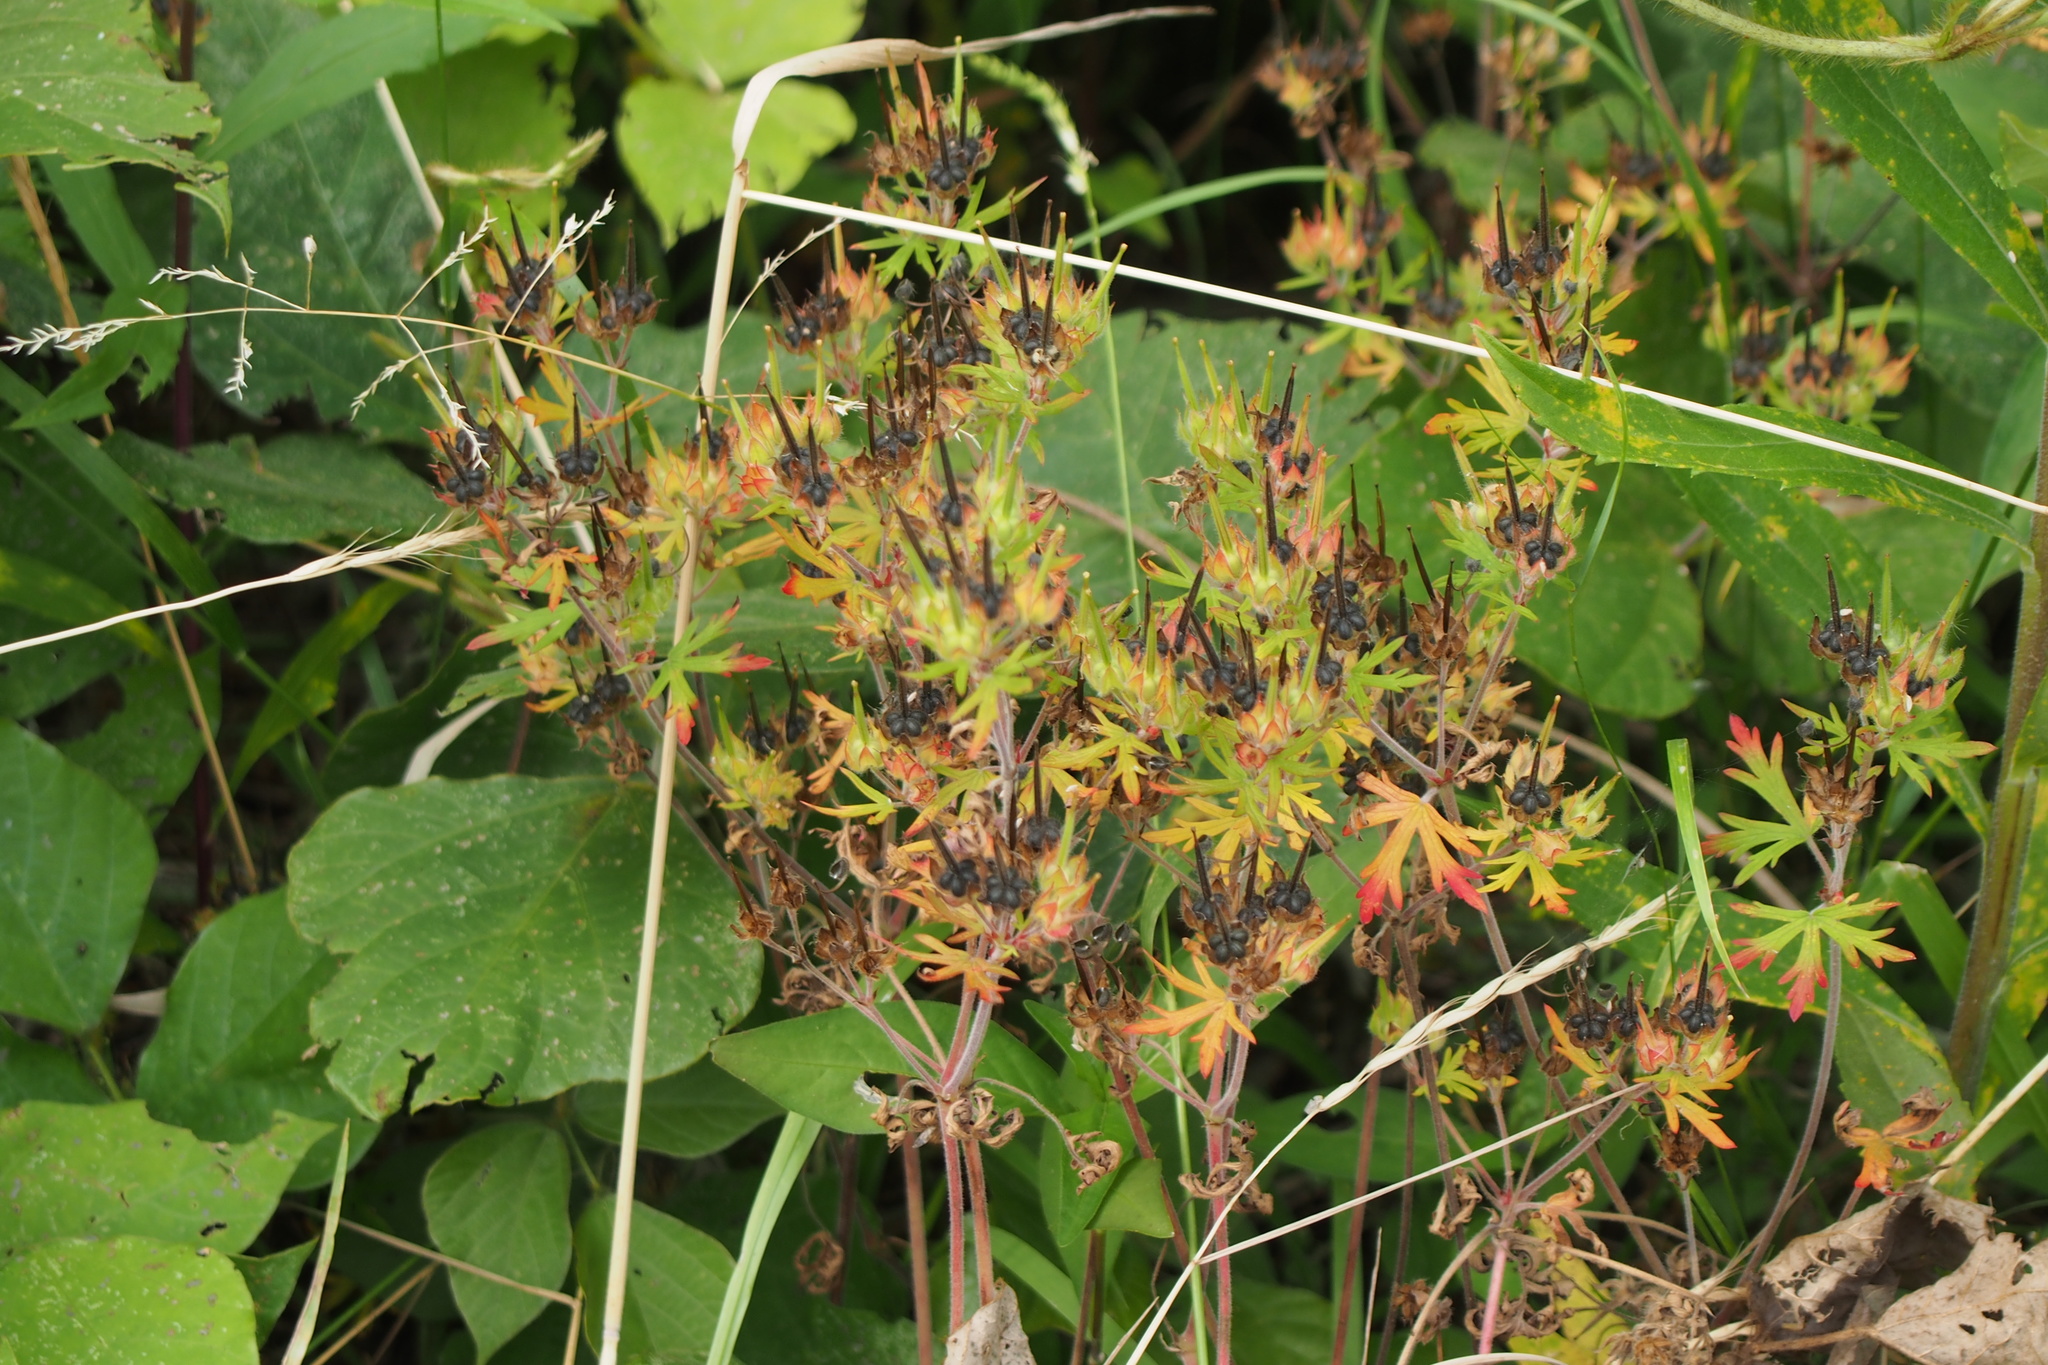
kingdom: Plantae
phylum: Tracheophyta
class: Magnoliopsida
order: Geraniales
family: Geraniaceae
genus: Geranium
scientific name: Geranium carolinianum
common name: Carolina crane's-bill
